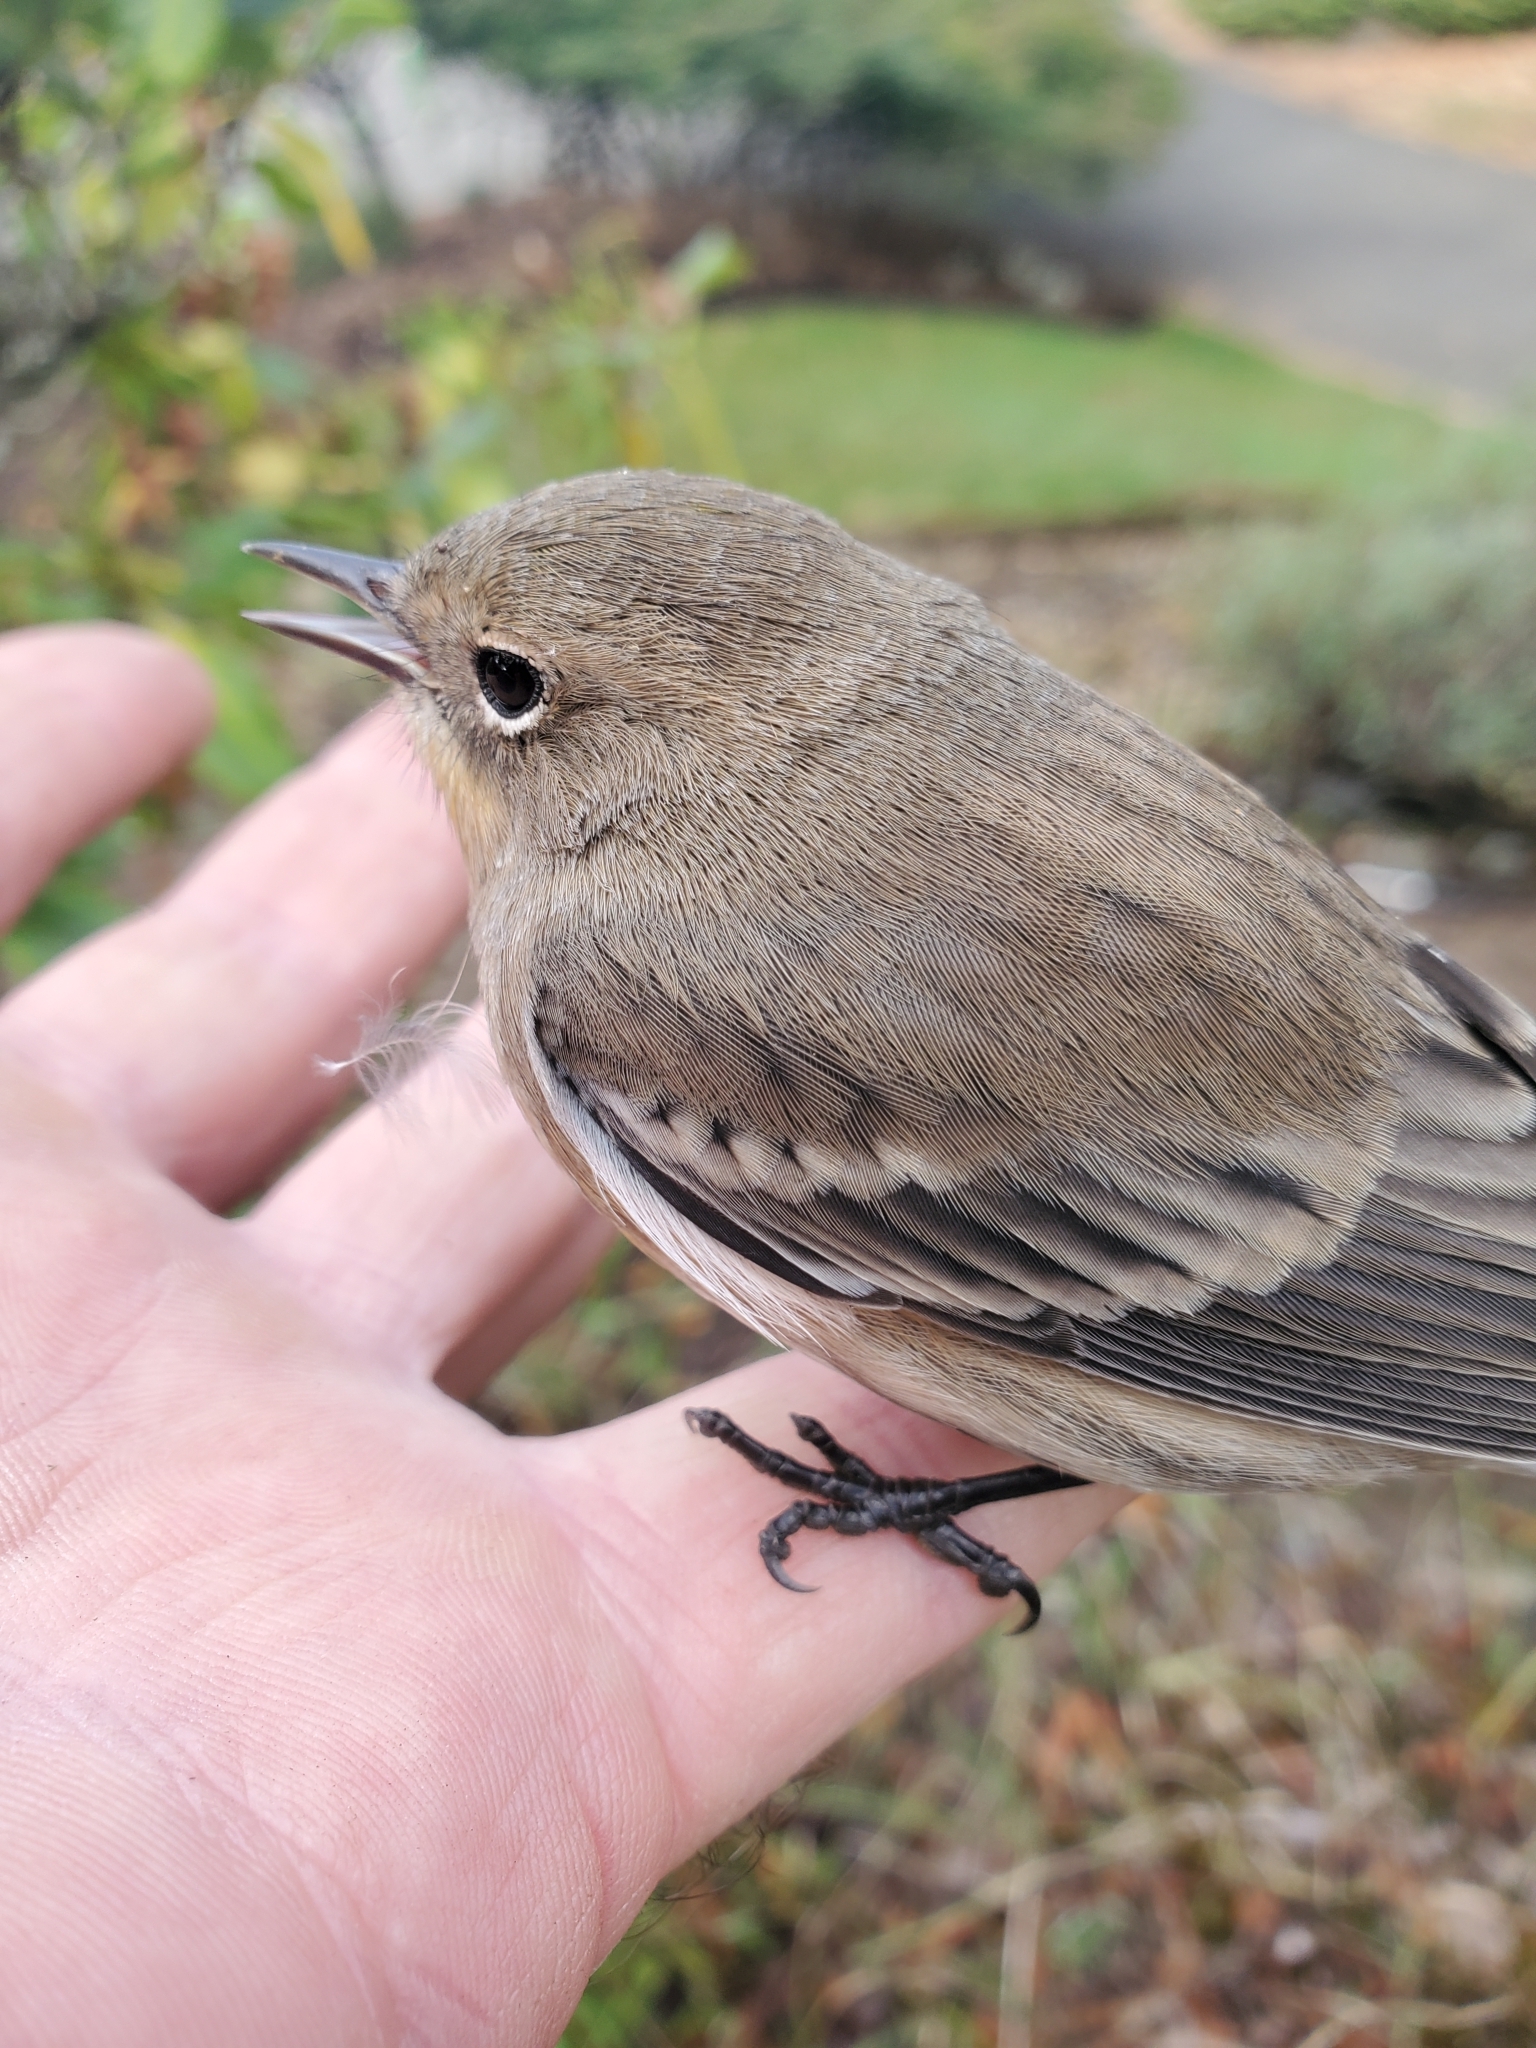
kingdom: Animalia
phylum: Chordata
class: Aves
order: Passeriformes
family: Parulidae
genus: Setophaga
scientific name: Setophaga coronata
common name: Myrtle warbler
